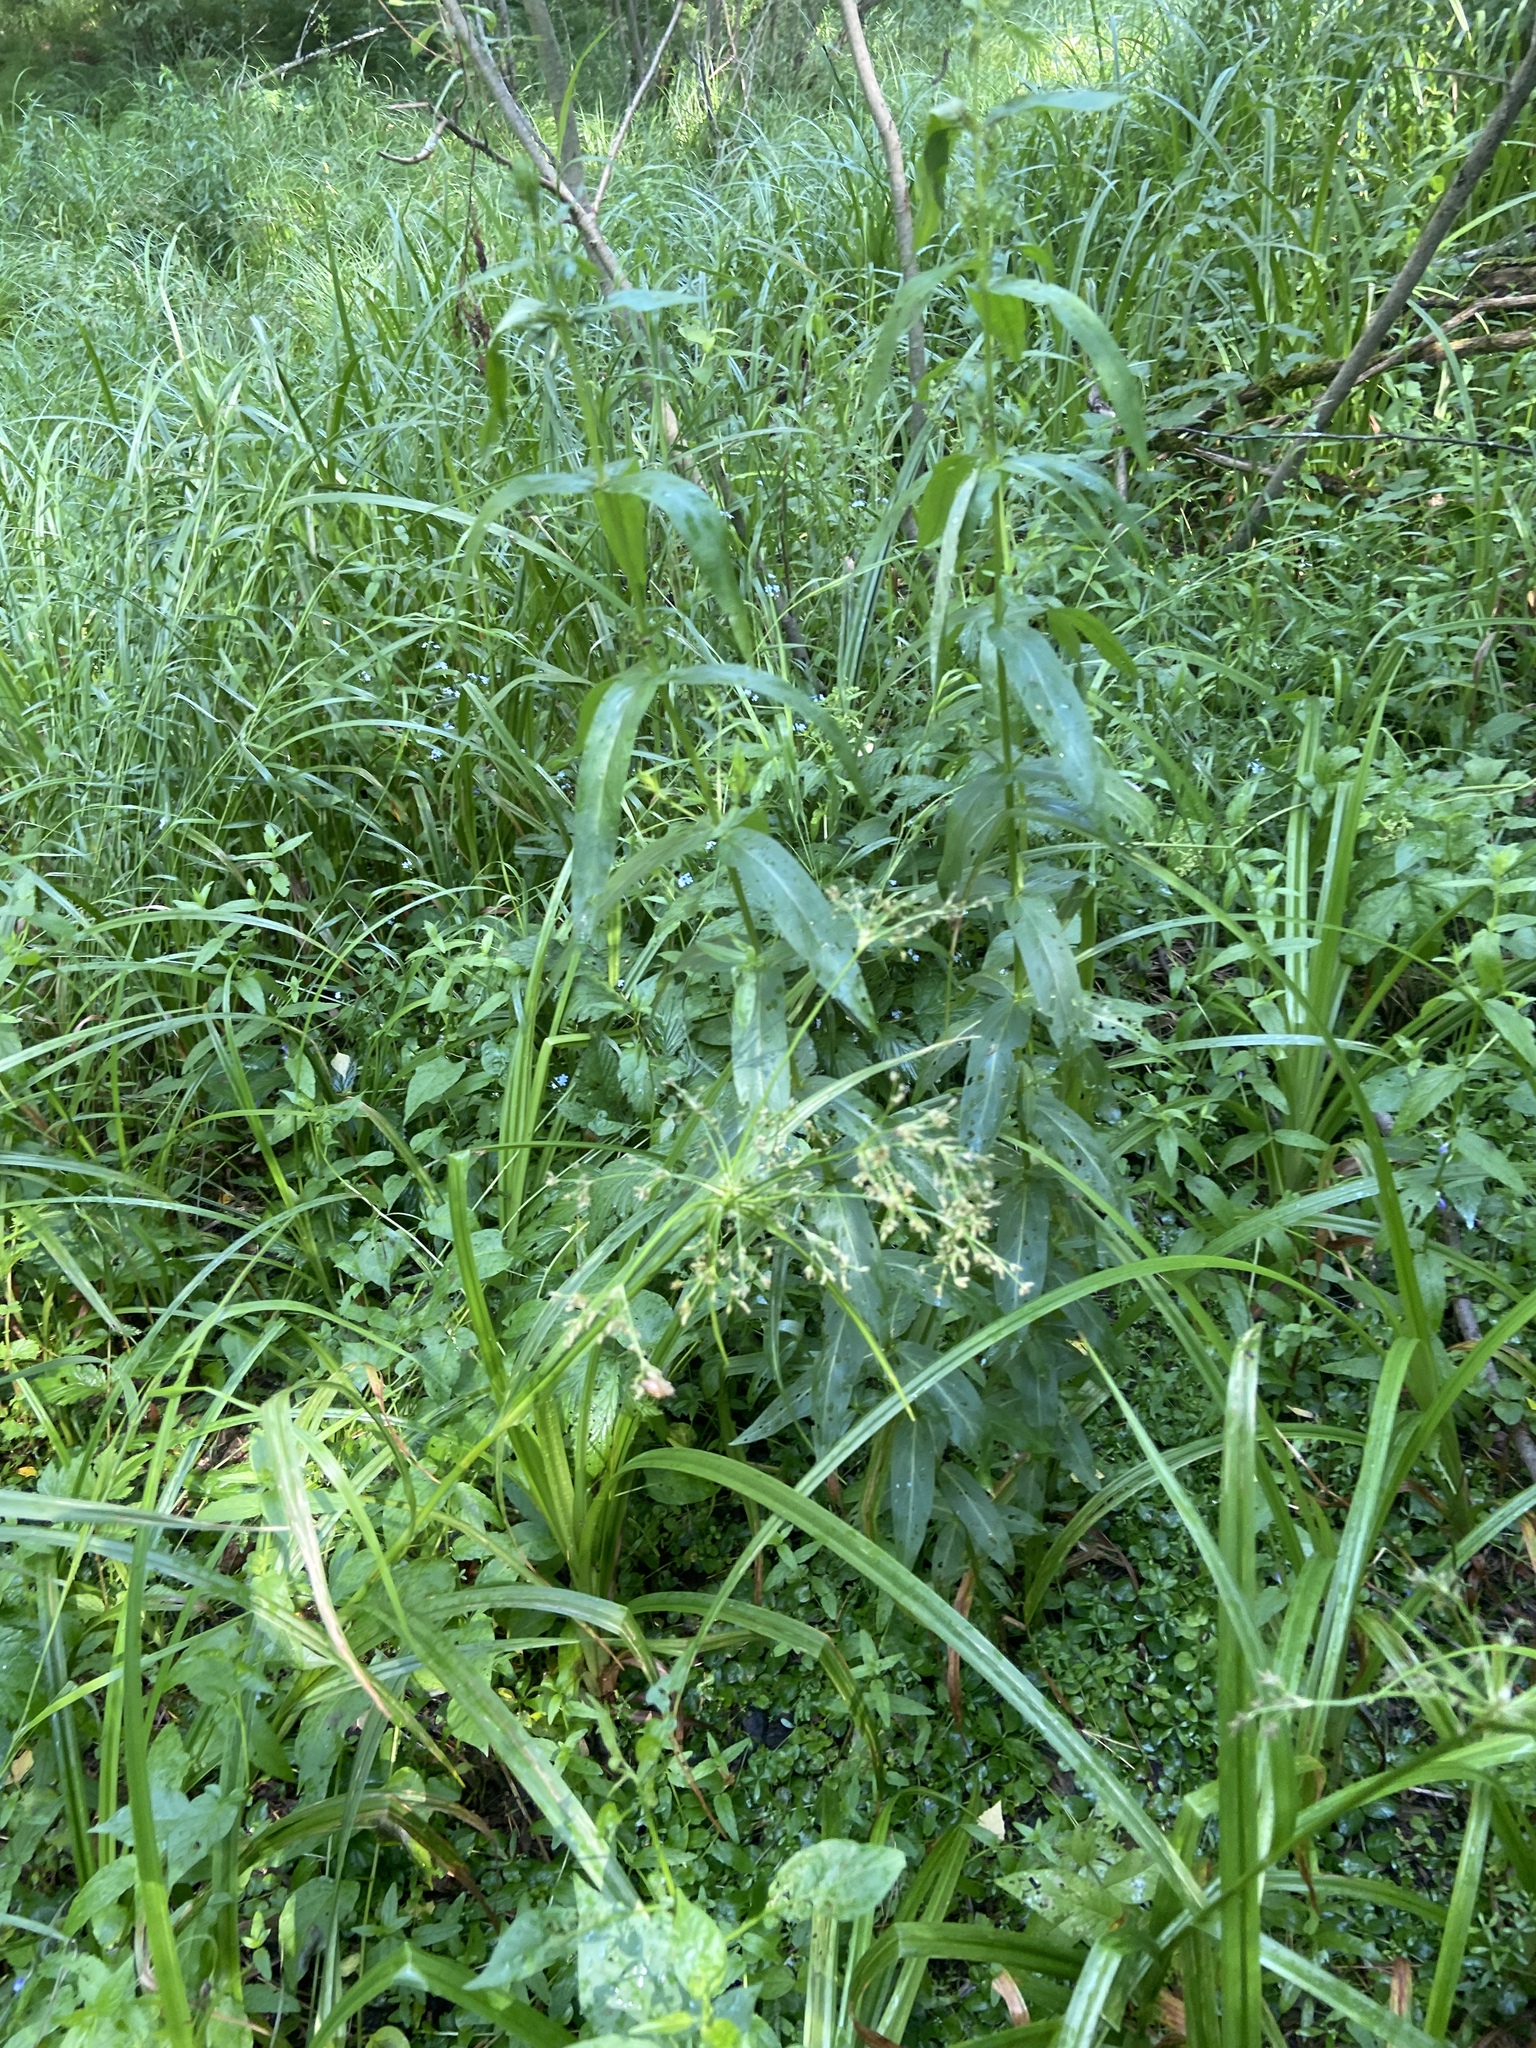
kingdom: Plantae
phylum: Tracheophyta
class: Liliopsida
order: Poales
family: Cyperaceae
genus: Scirpus
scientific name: Scirpus sylvaticus
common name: Wood club-rush
